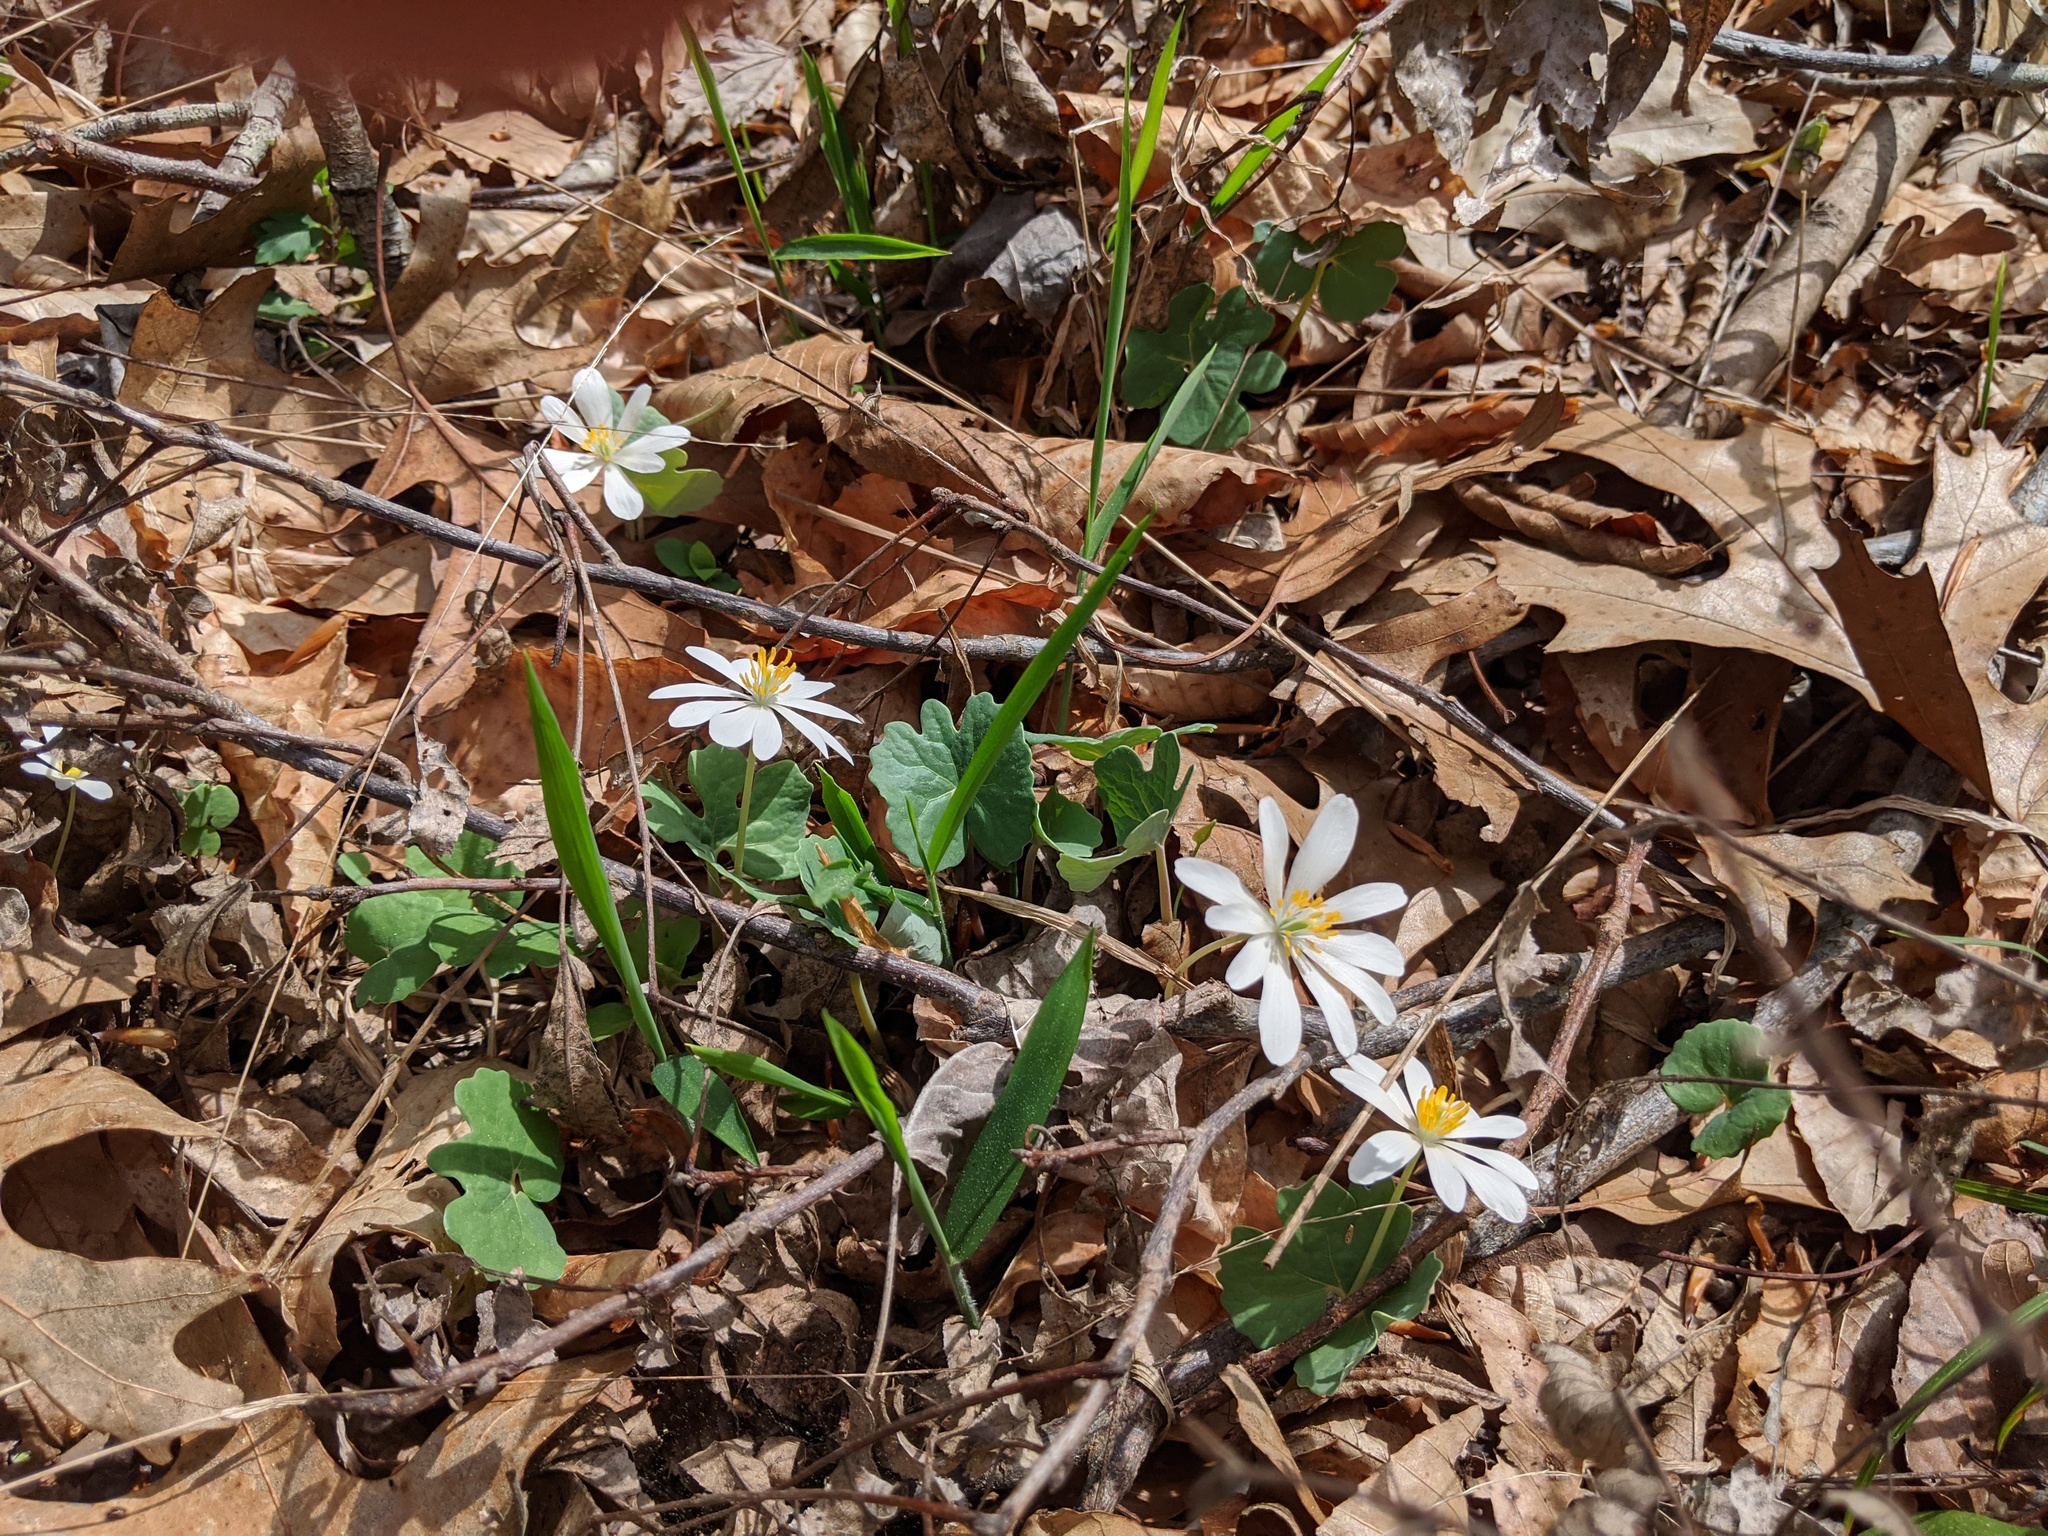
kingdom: Plantae
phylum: Tracheophyta
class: Magnoliopsida
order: Ranunculales
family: Papaveraceae
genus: Sanguinaria
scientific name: Sanguinaria canadensis
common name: Bloodroot
